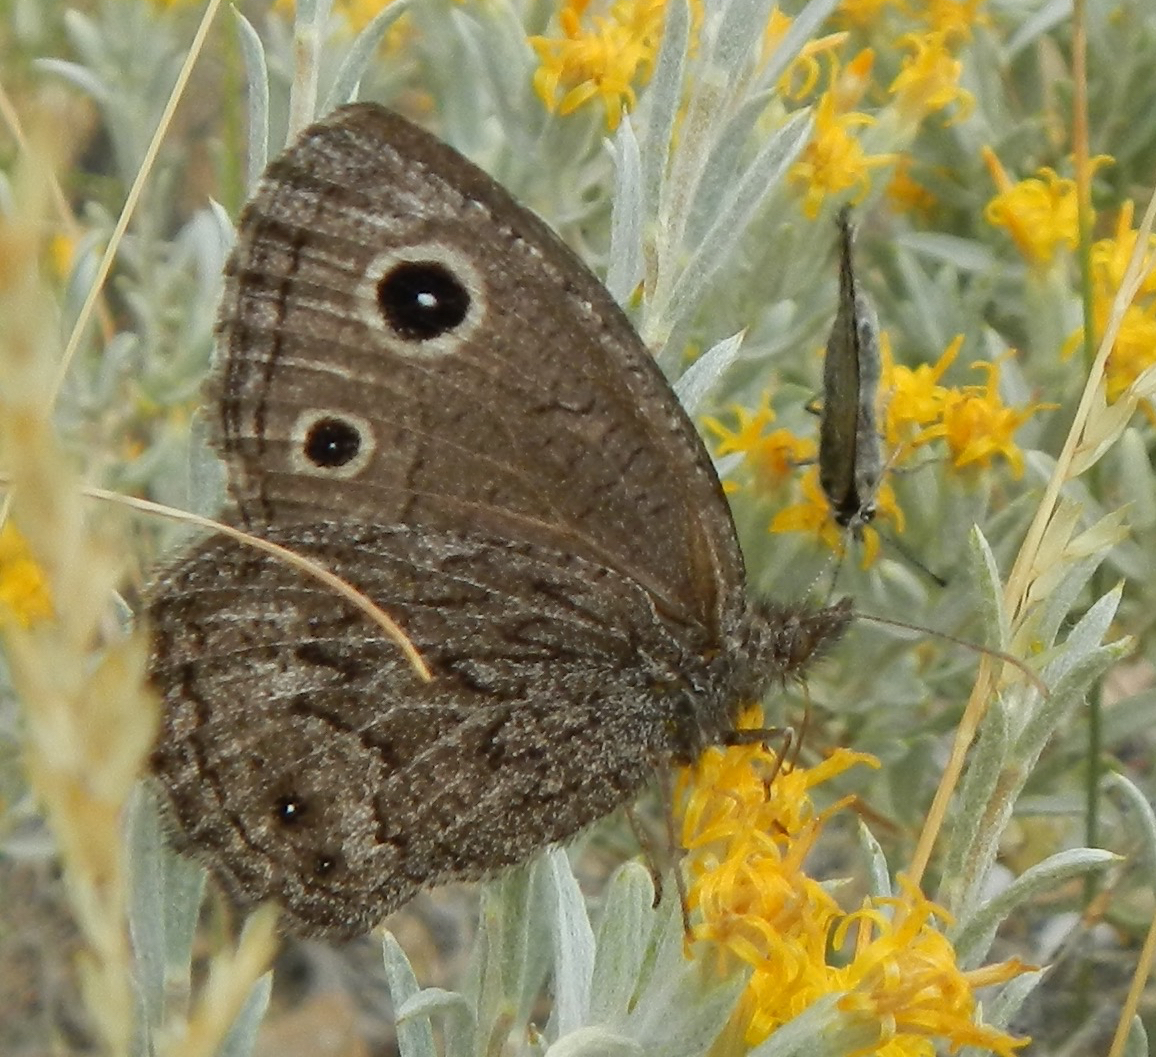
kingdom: Animalia
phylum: Arthropoda
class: Insecta
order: Lepidoptera
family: Nymphalidae
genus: Cercyonis
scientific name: Cercyonis oetus
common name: Small wood-nymph
